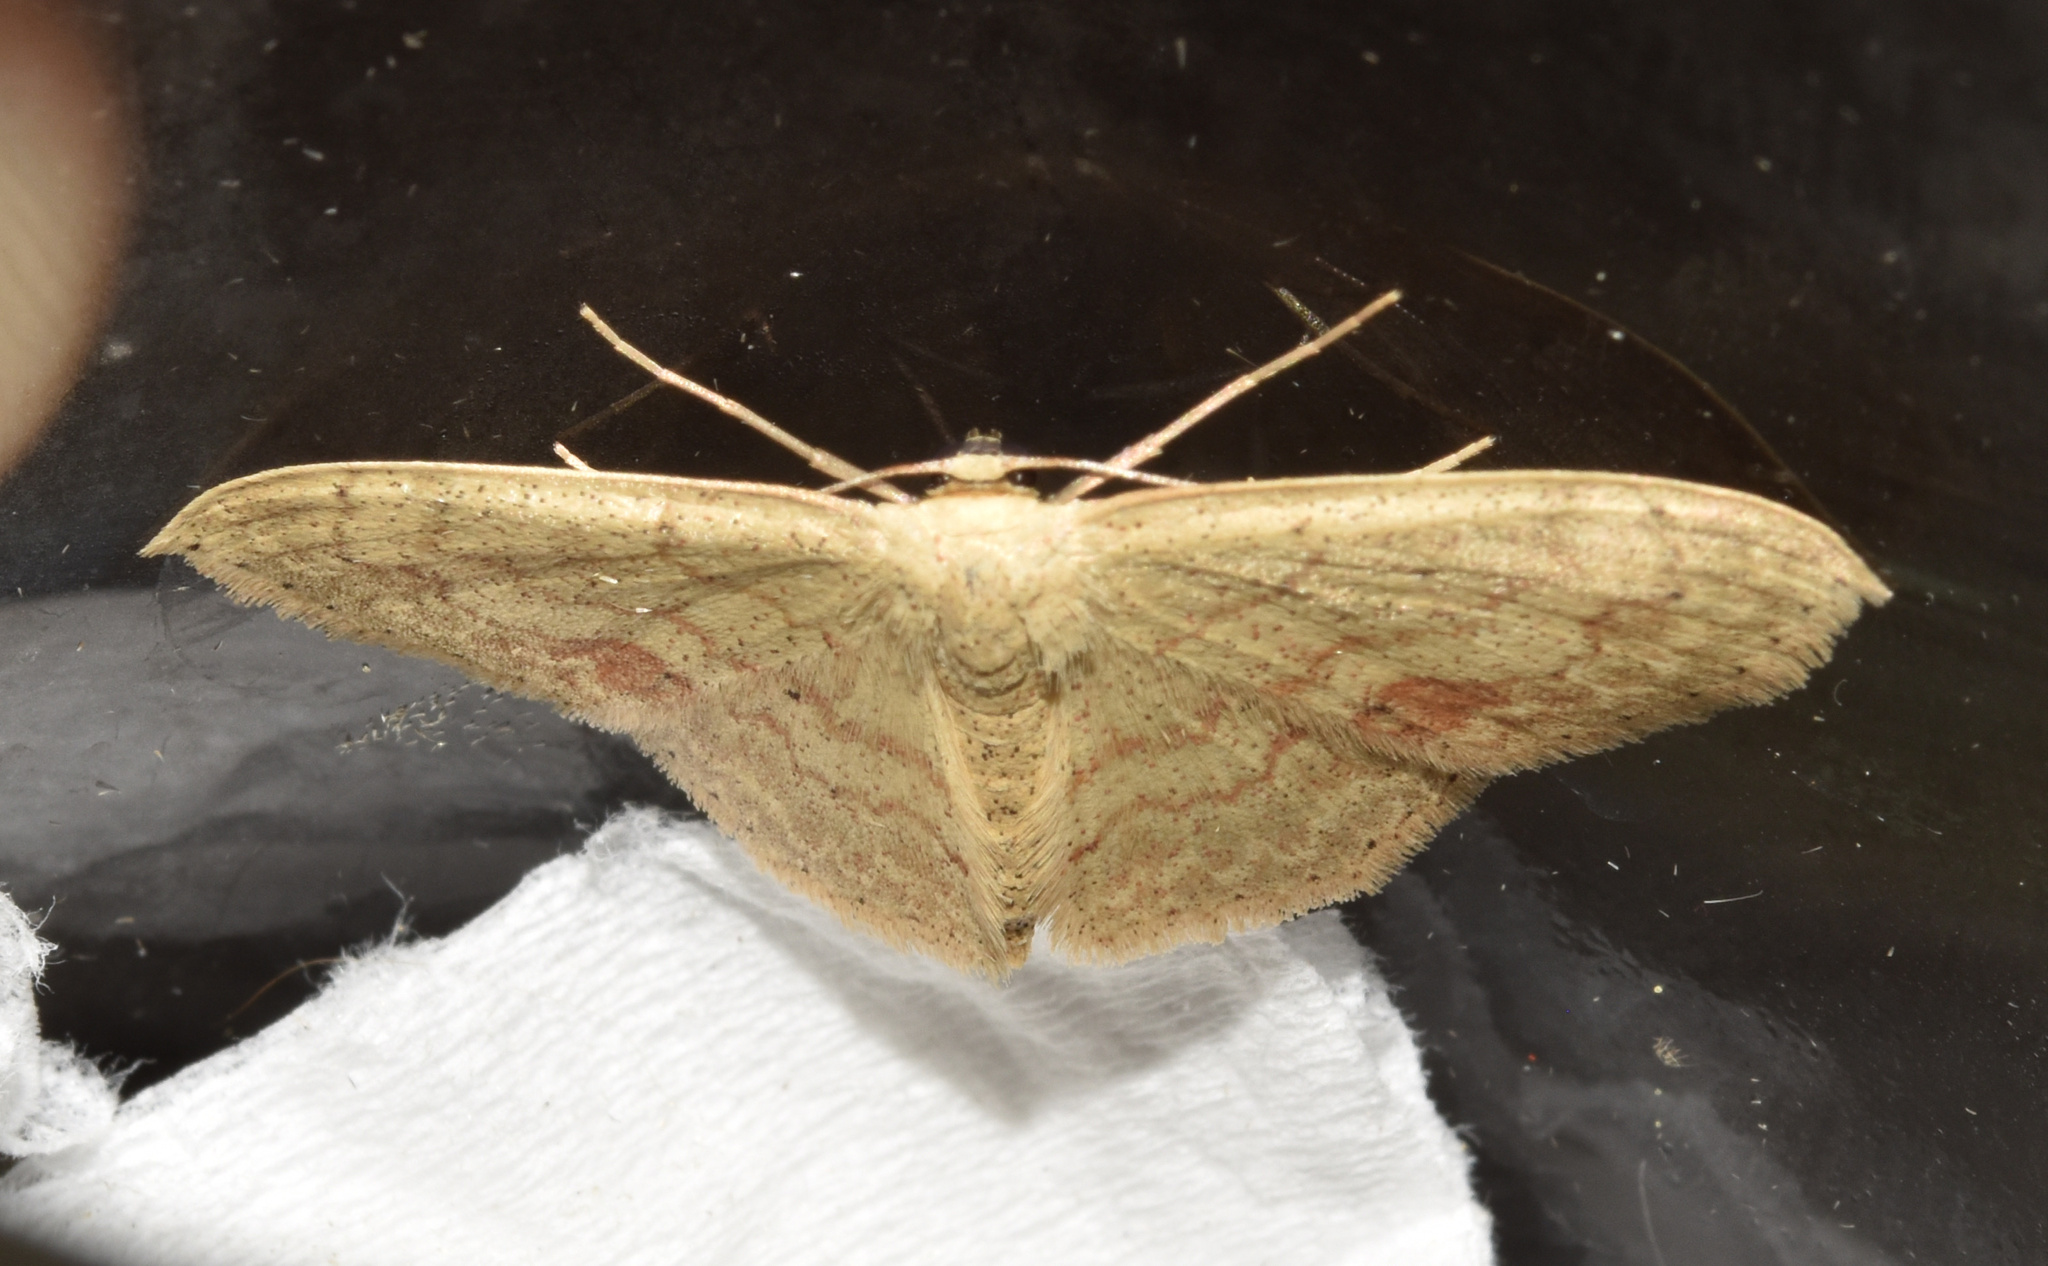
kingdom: Animalia
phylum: Arthropoda
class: Insecta
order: Lepidoptera
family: Geometridae
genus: Scopula
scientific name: Scopula internata
